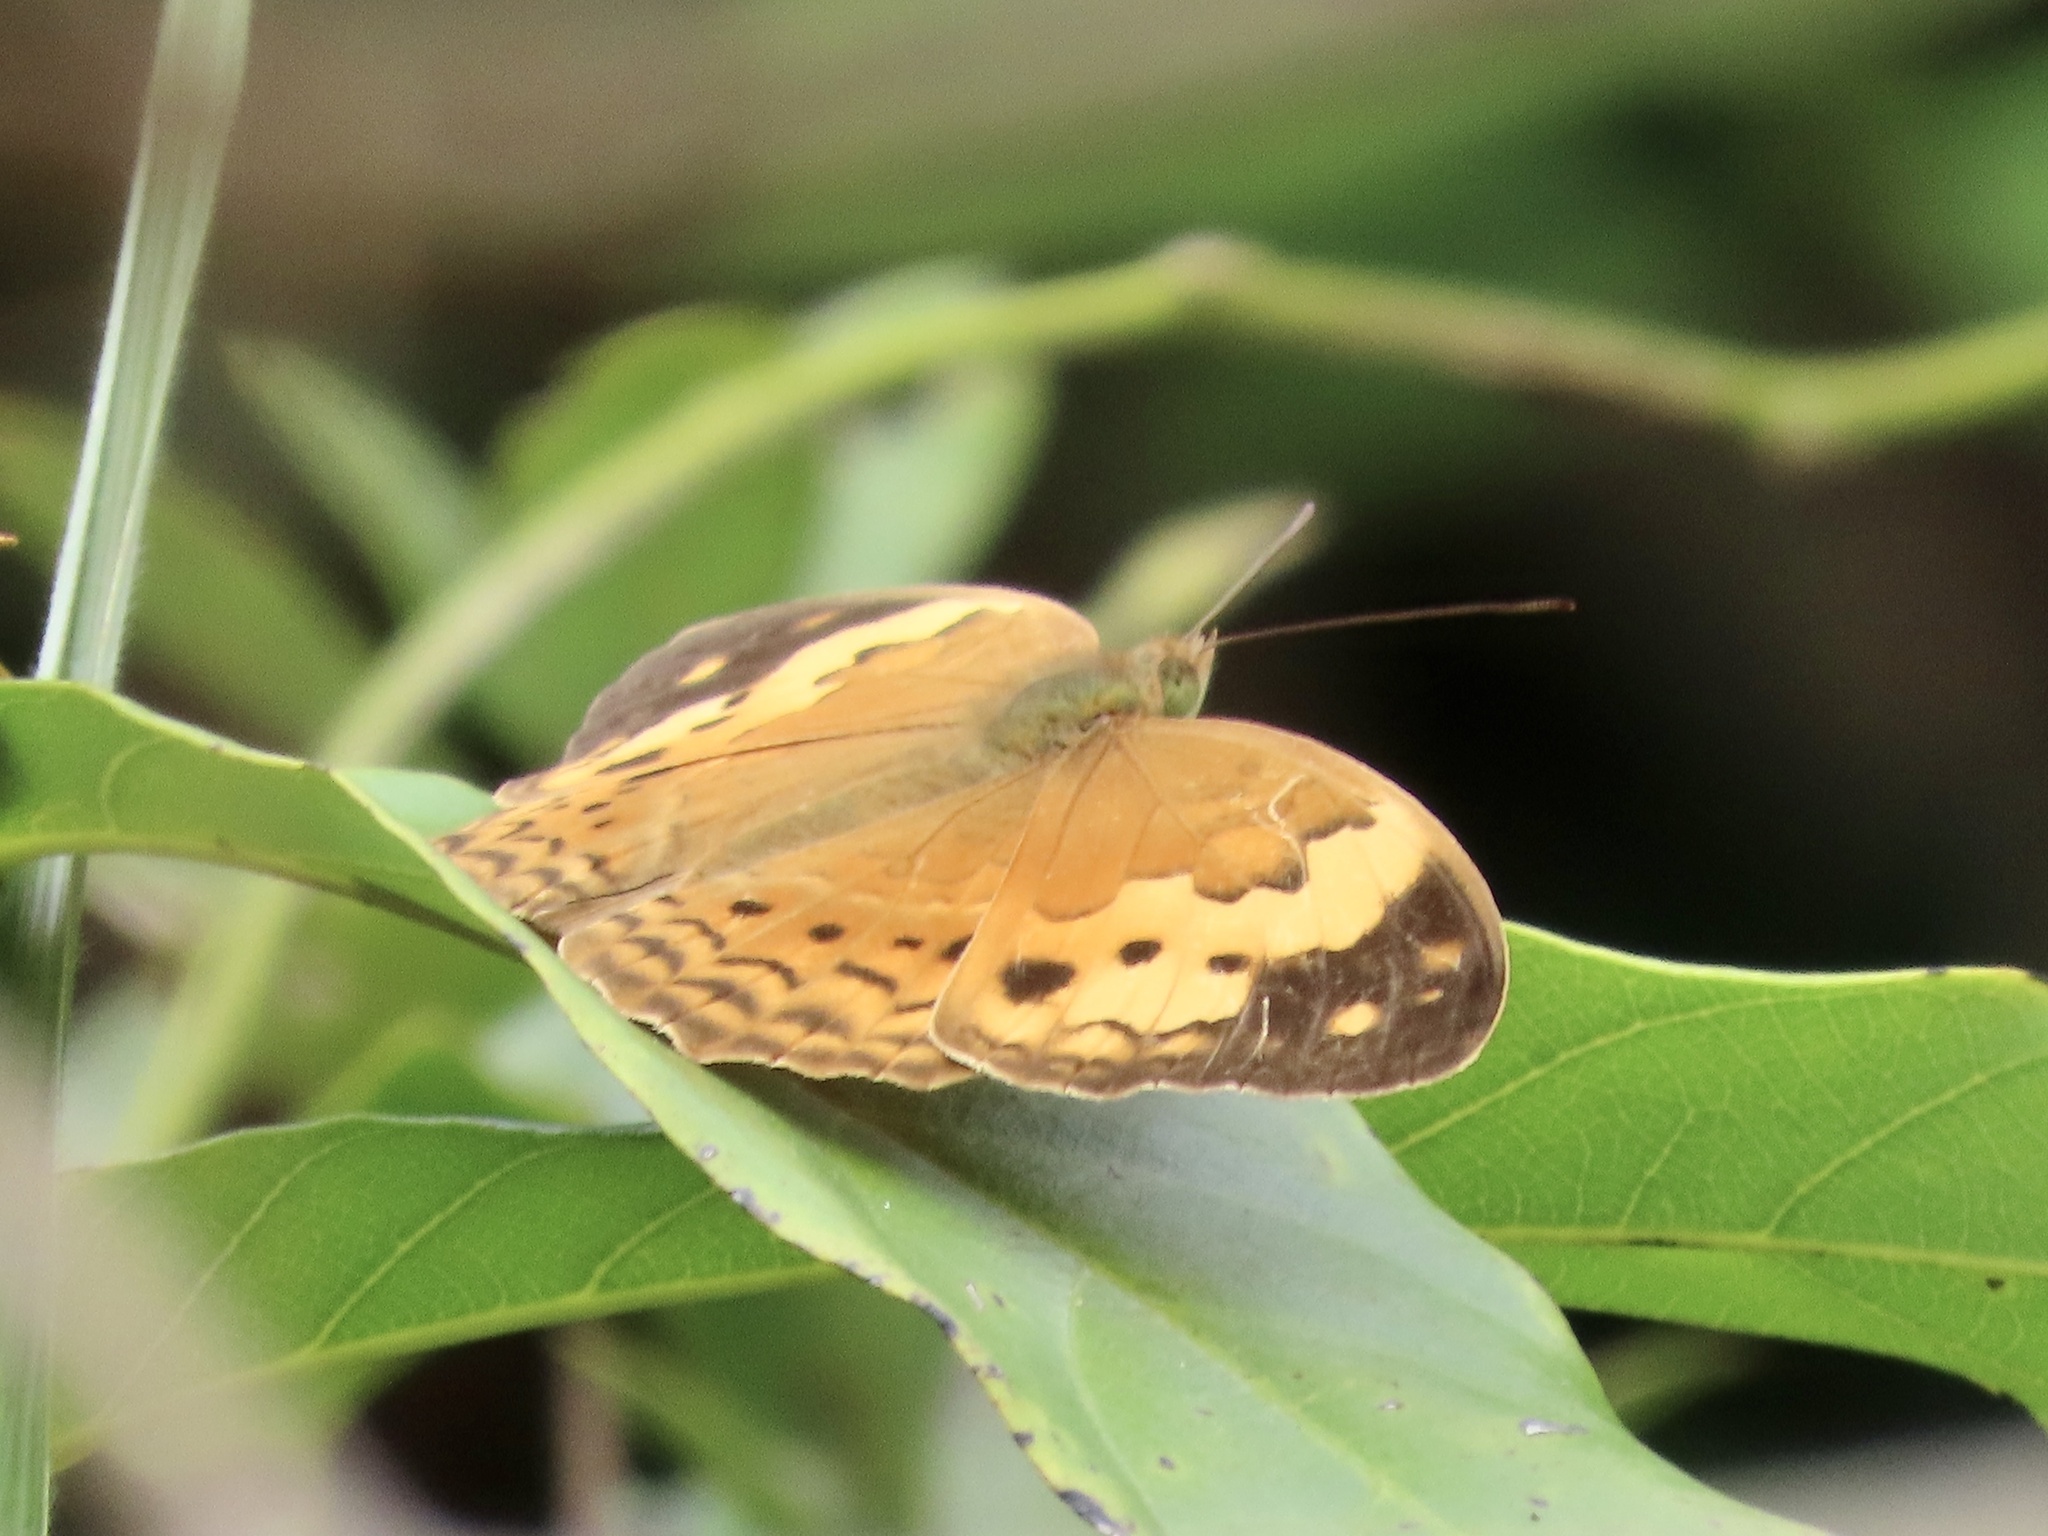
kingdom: Animalia
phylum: Arthropoda
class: Insecta
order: Lepidoptera
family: Nymphalidae
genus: Cupha
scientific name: Cupha erymanthis
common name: Rustic
